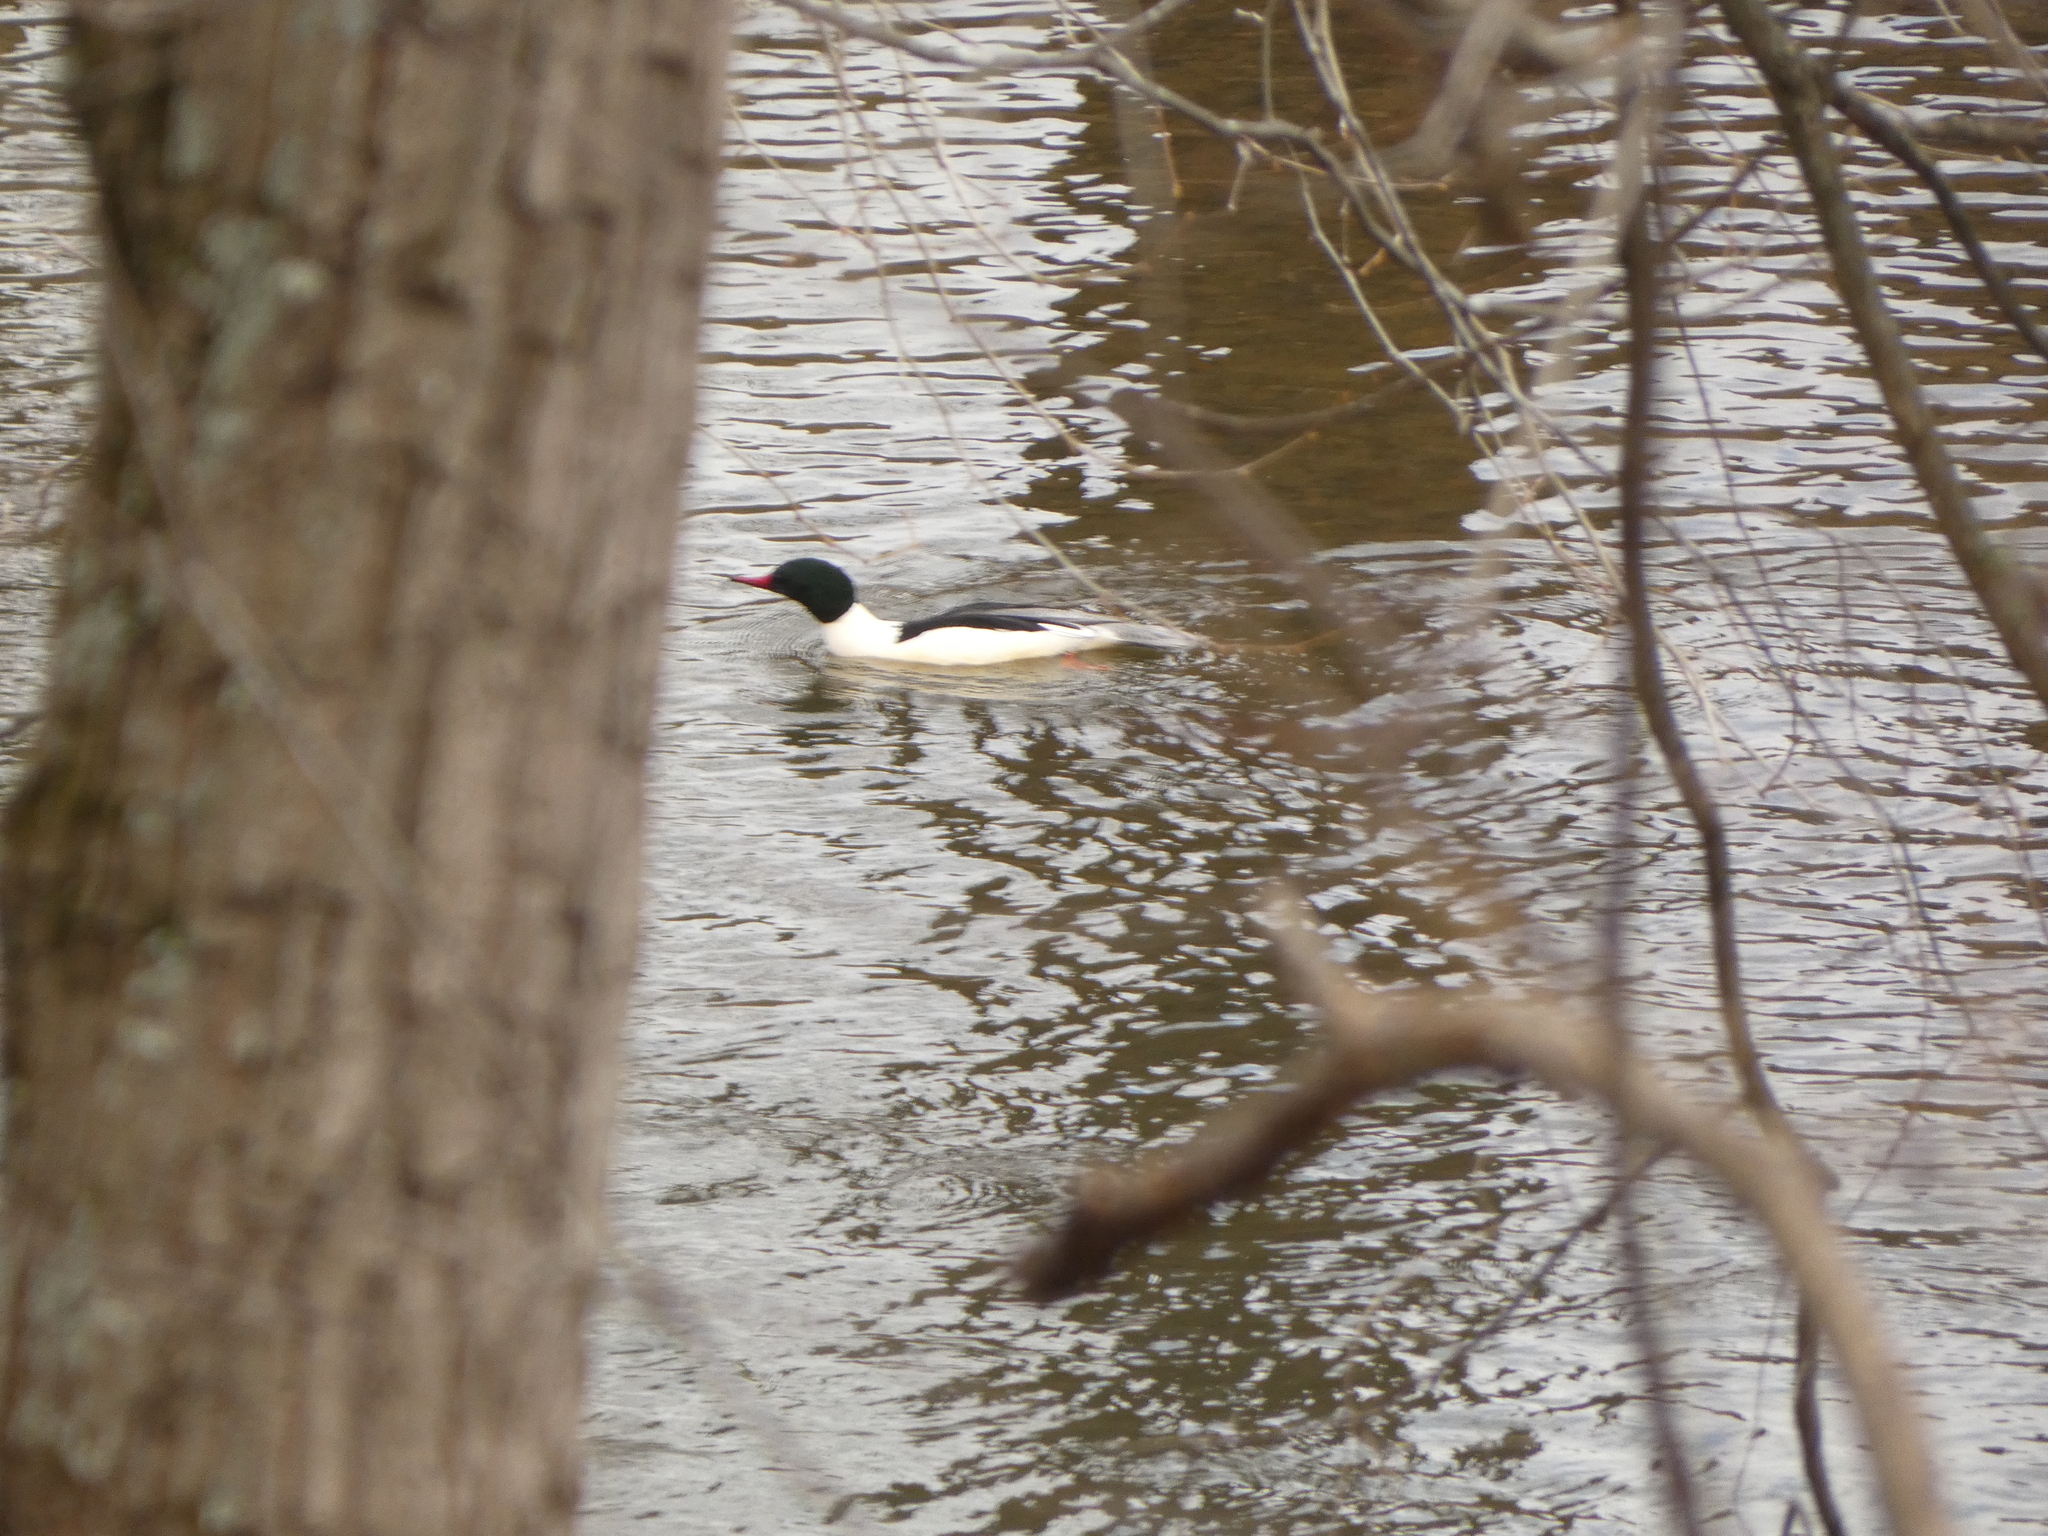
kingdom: Animalia
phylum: Chordata
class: Aves
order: Anseriformes
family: Anatidae
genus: Mergus
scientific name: Mergus merganser
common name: Common merganser
